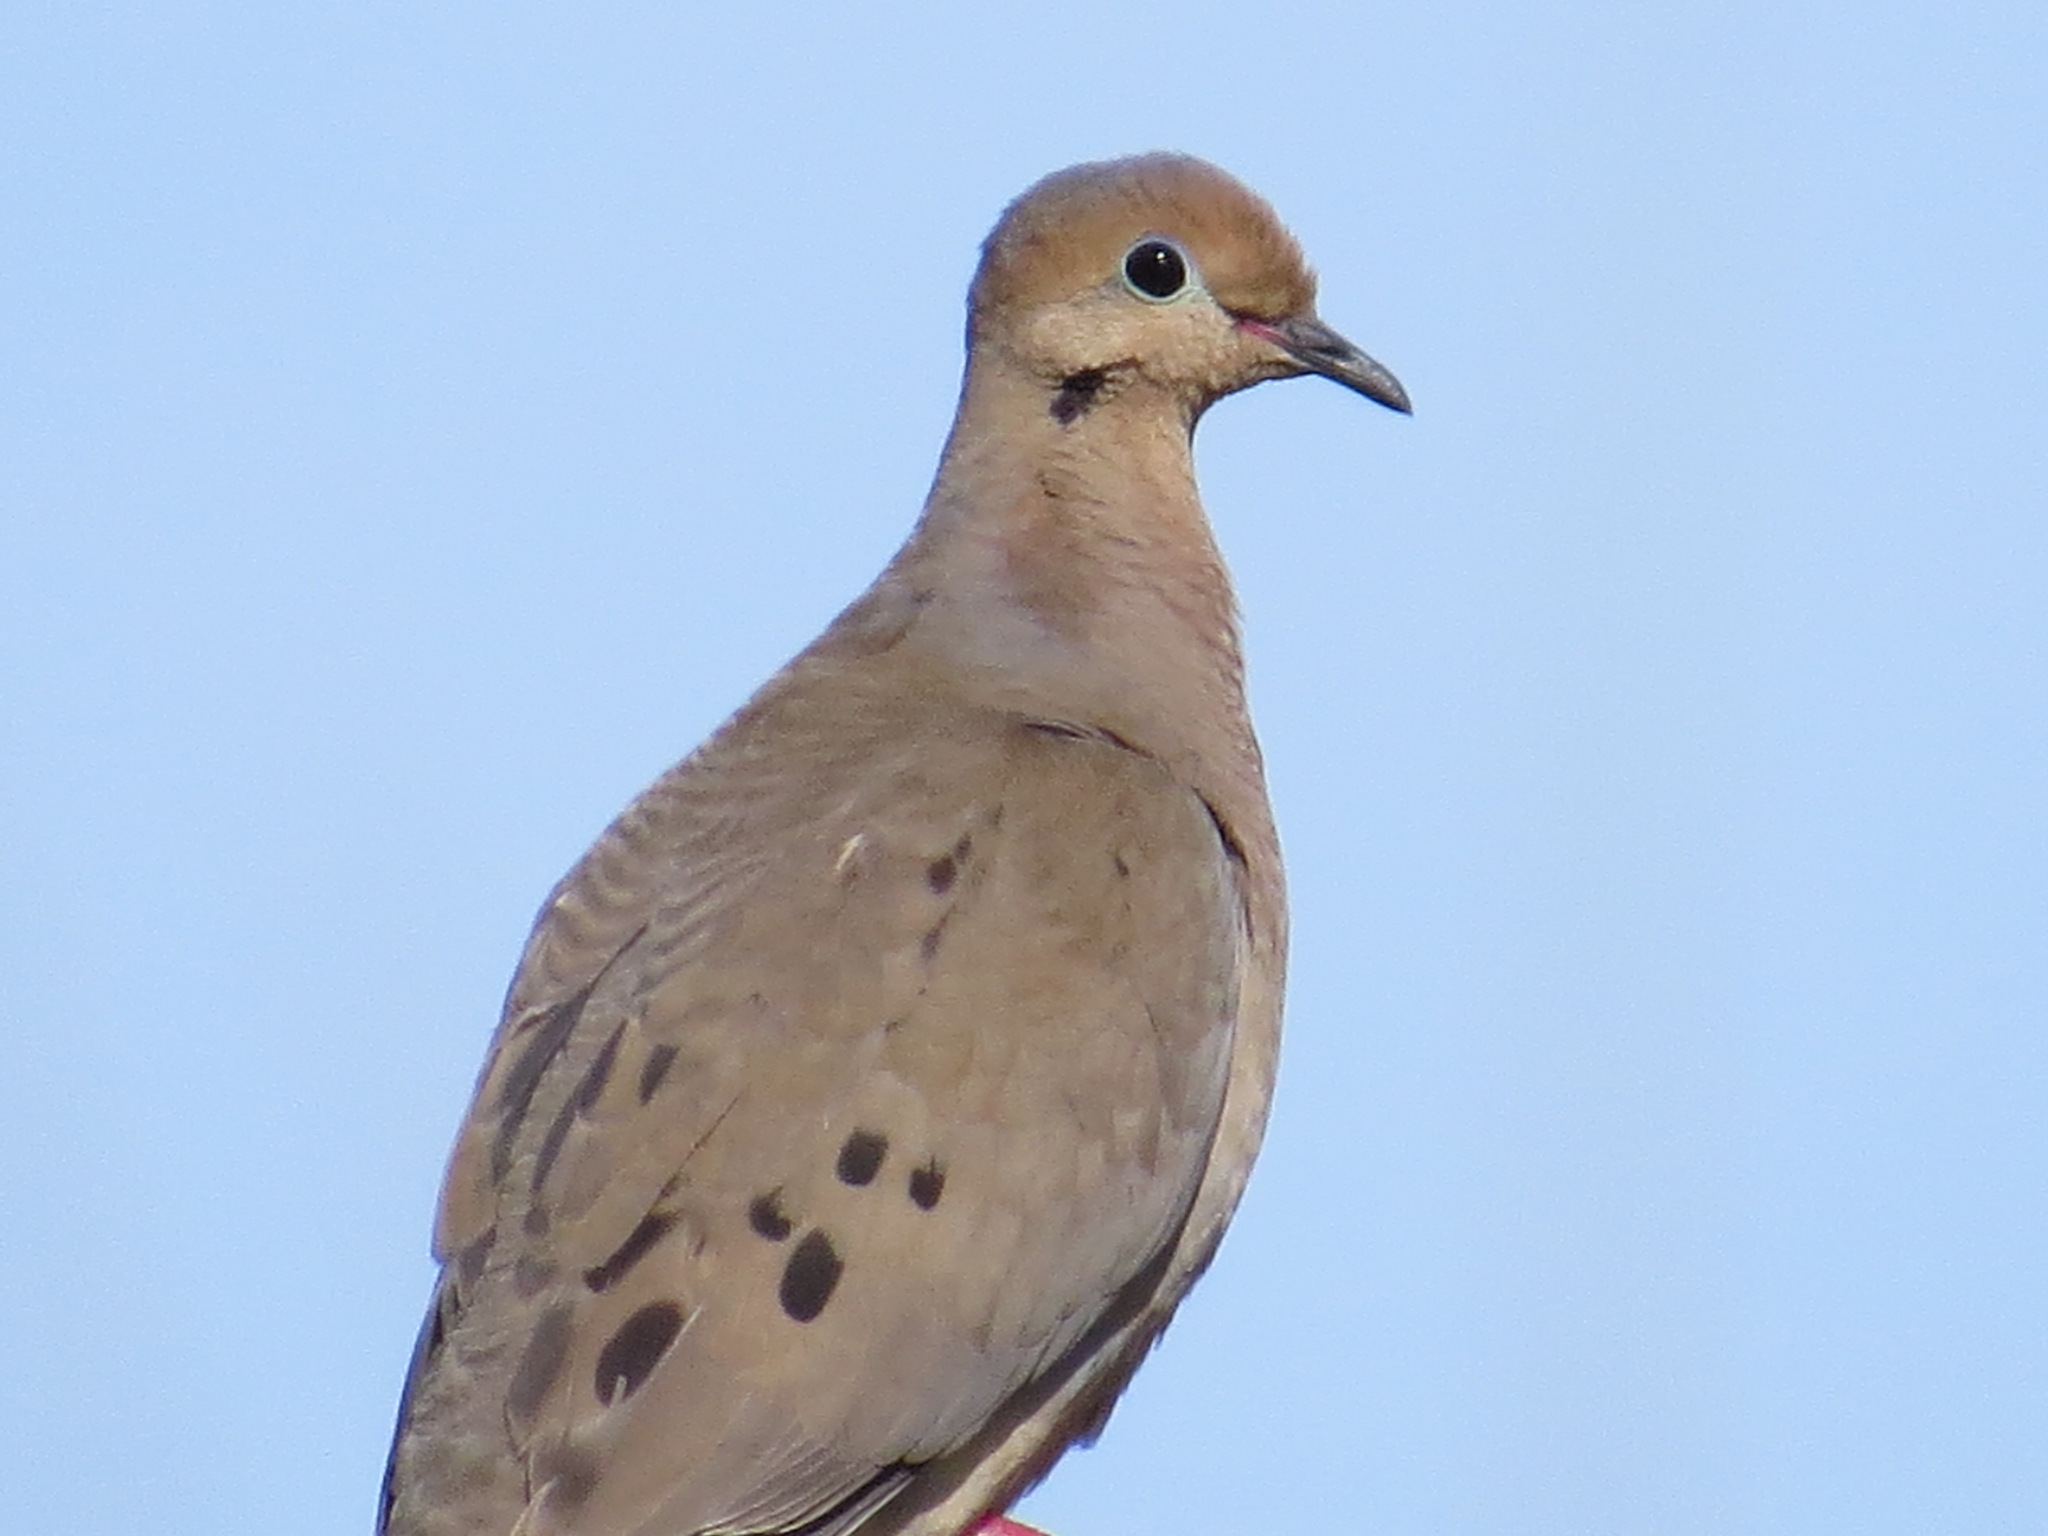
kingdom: Animalia
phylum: Chordata
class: Aves
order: Columbiformes
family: Columbidae
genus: Zenaida
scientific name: Zenaida macroura
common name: Mourning dove
